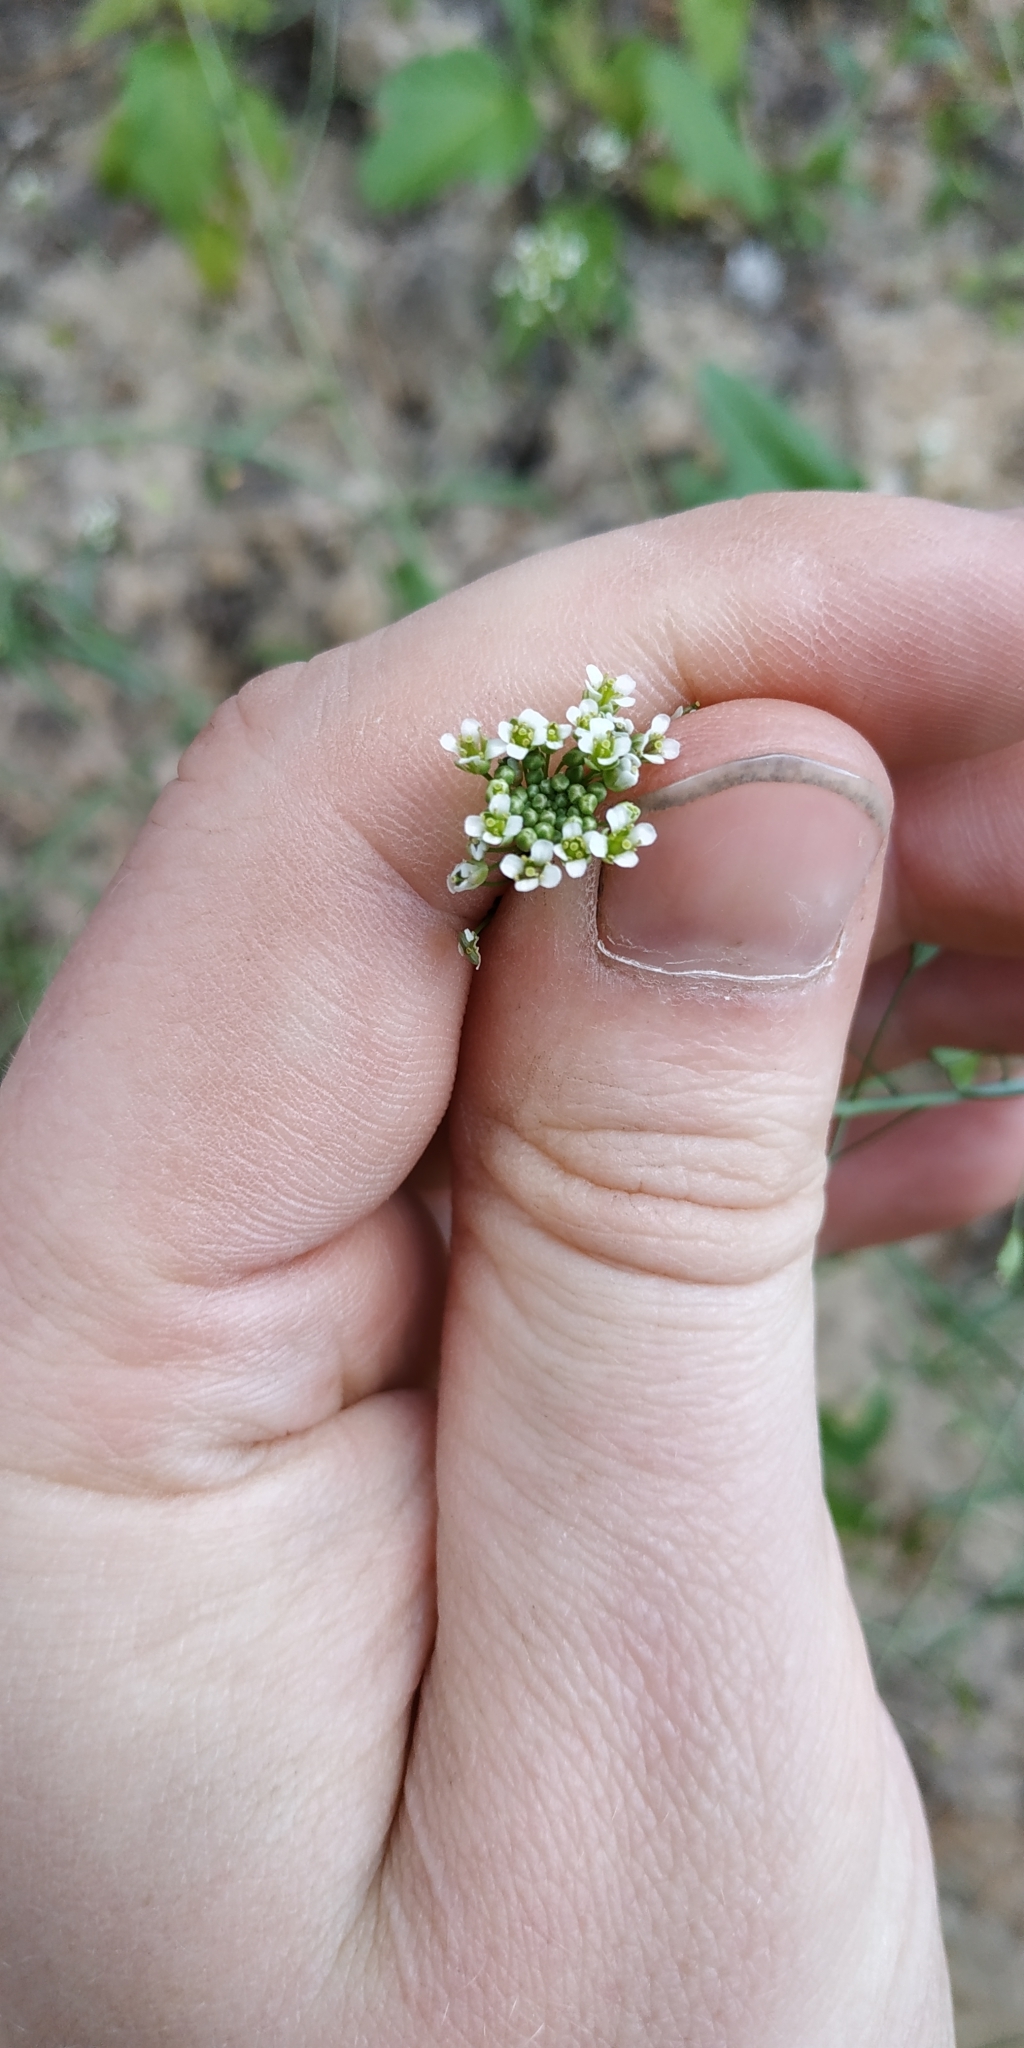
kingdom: Plantae
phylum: Tracheophyta
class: Magnoliopsida
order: Brassicales
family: Brassicaceae
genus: Capsella
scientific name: Capsella bursa-pastoris
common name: Shepherd's purse
